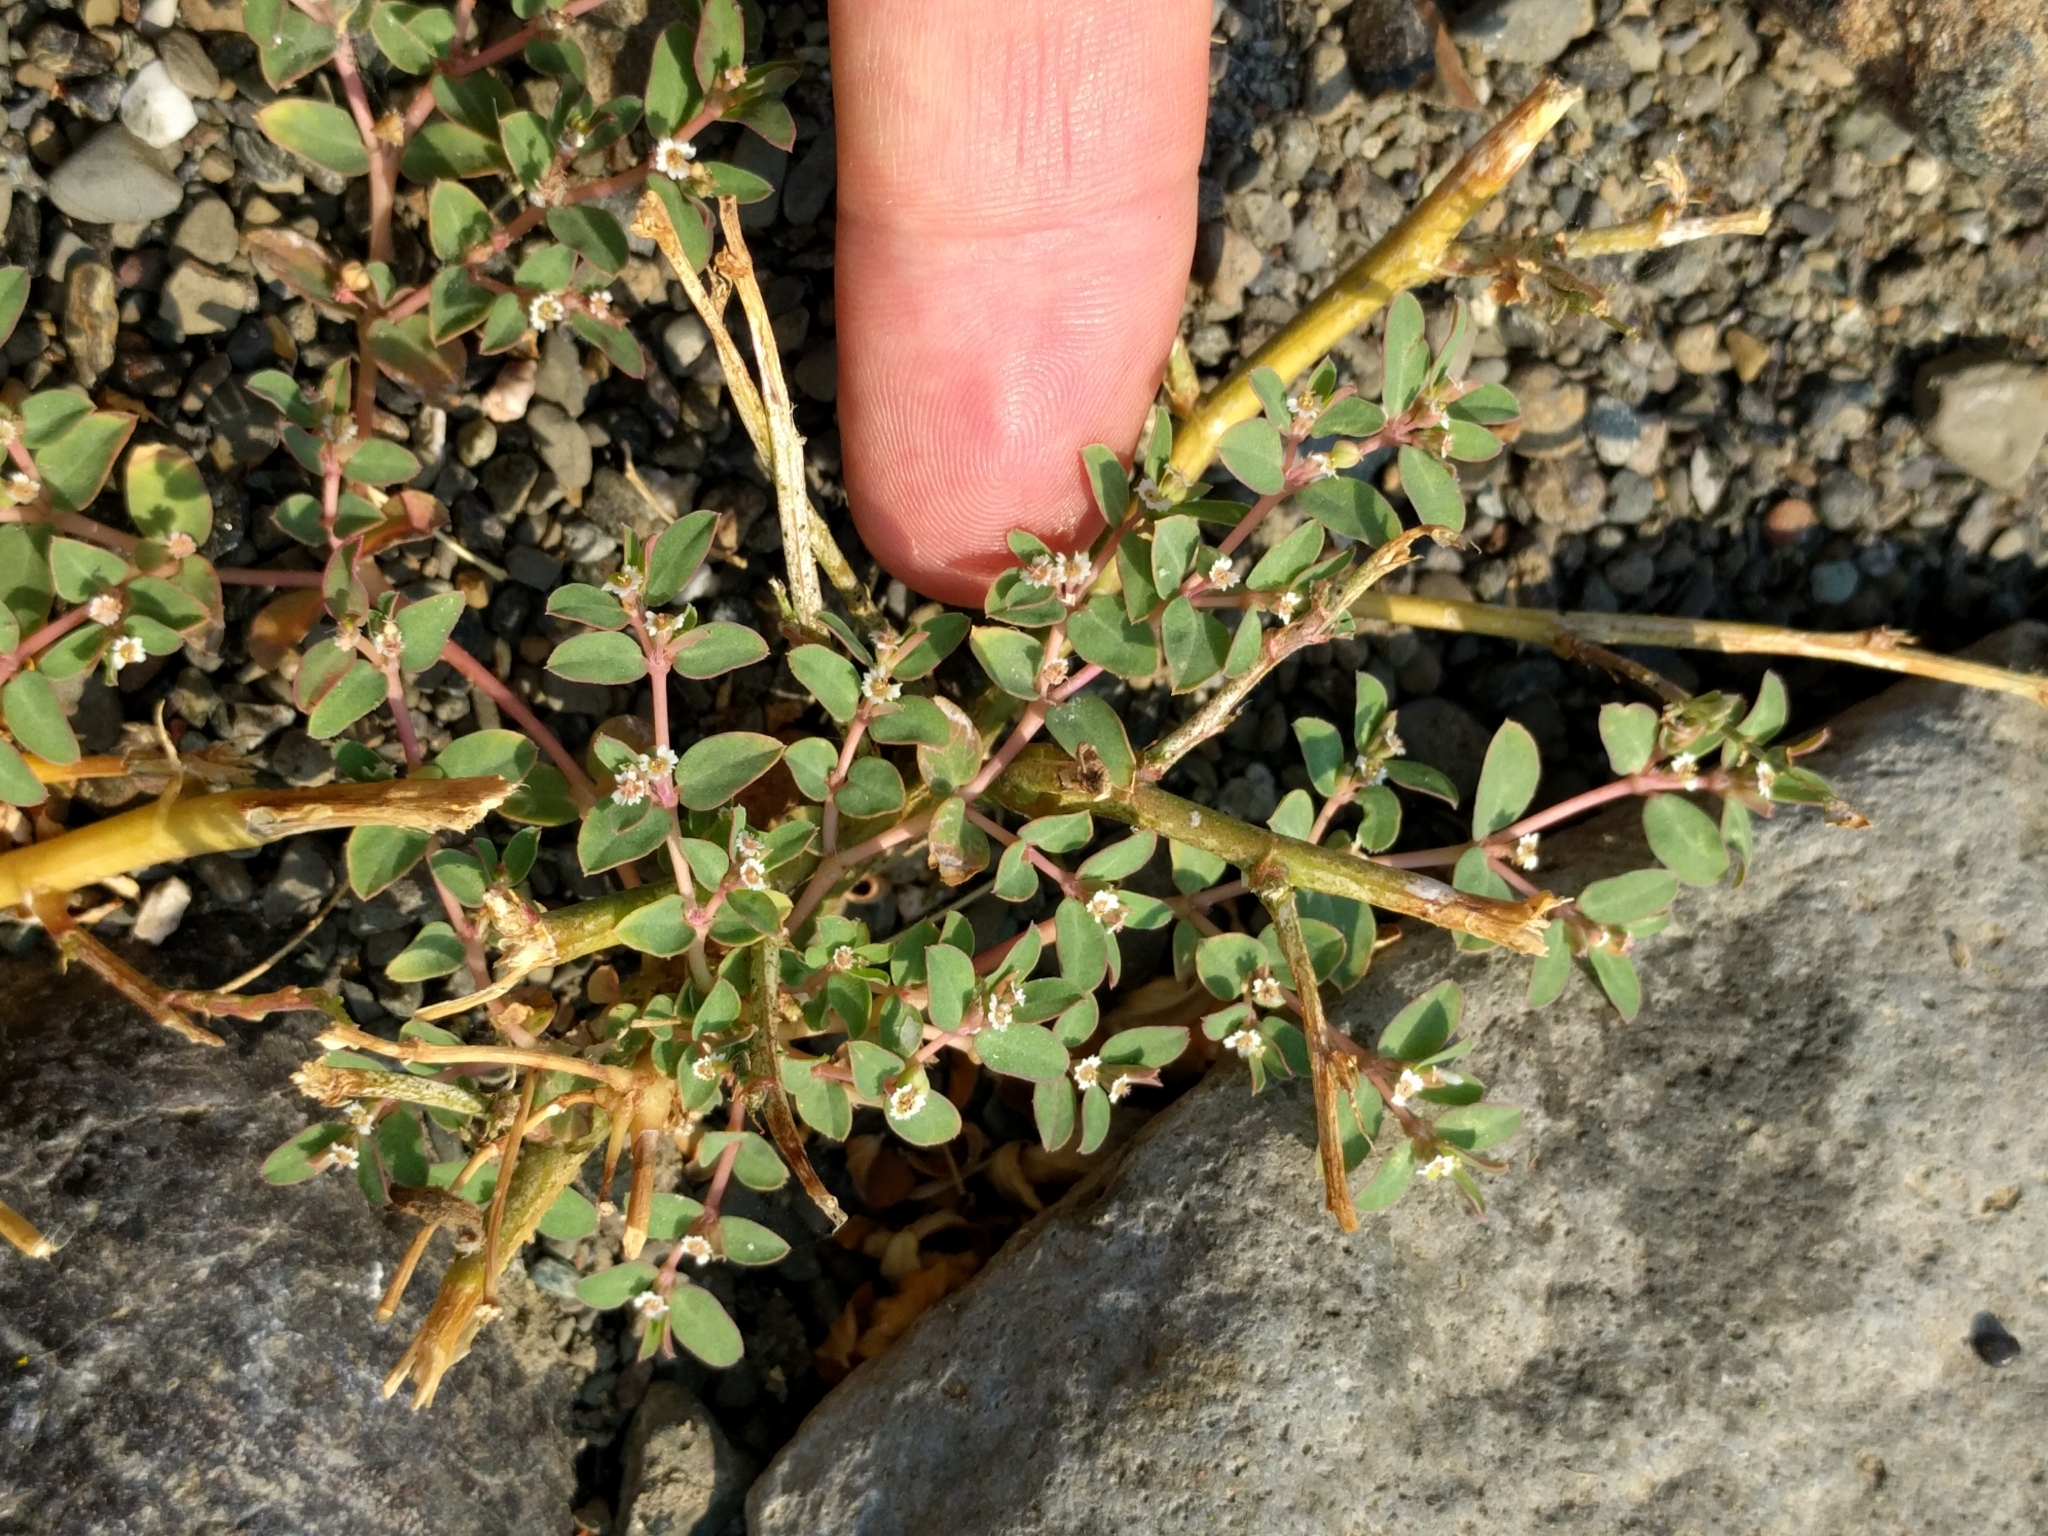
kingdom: Plantae
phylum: Tracheophyta
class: Magnoliopsida
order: Malpighiales
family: Euphorbiaceae
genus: Euphorbia
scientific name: Euphorbia serpillifolia
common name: Thyme-leaf spurge
